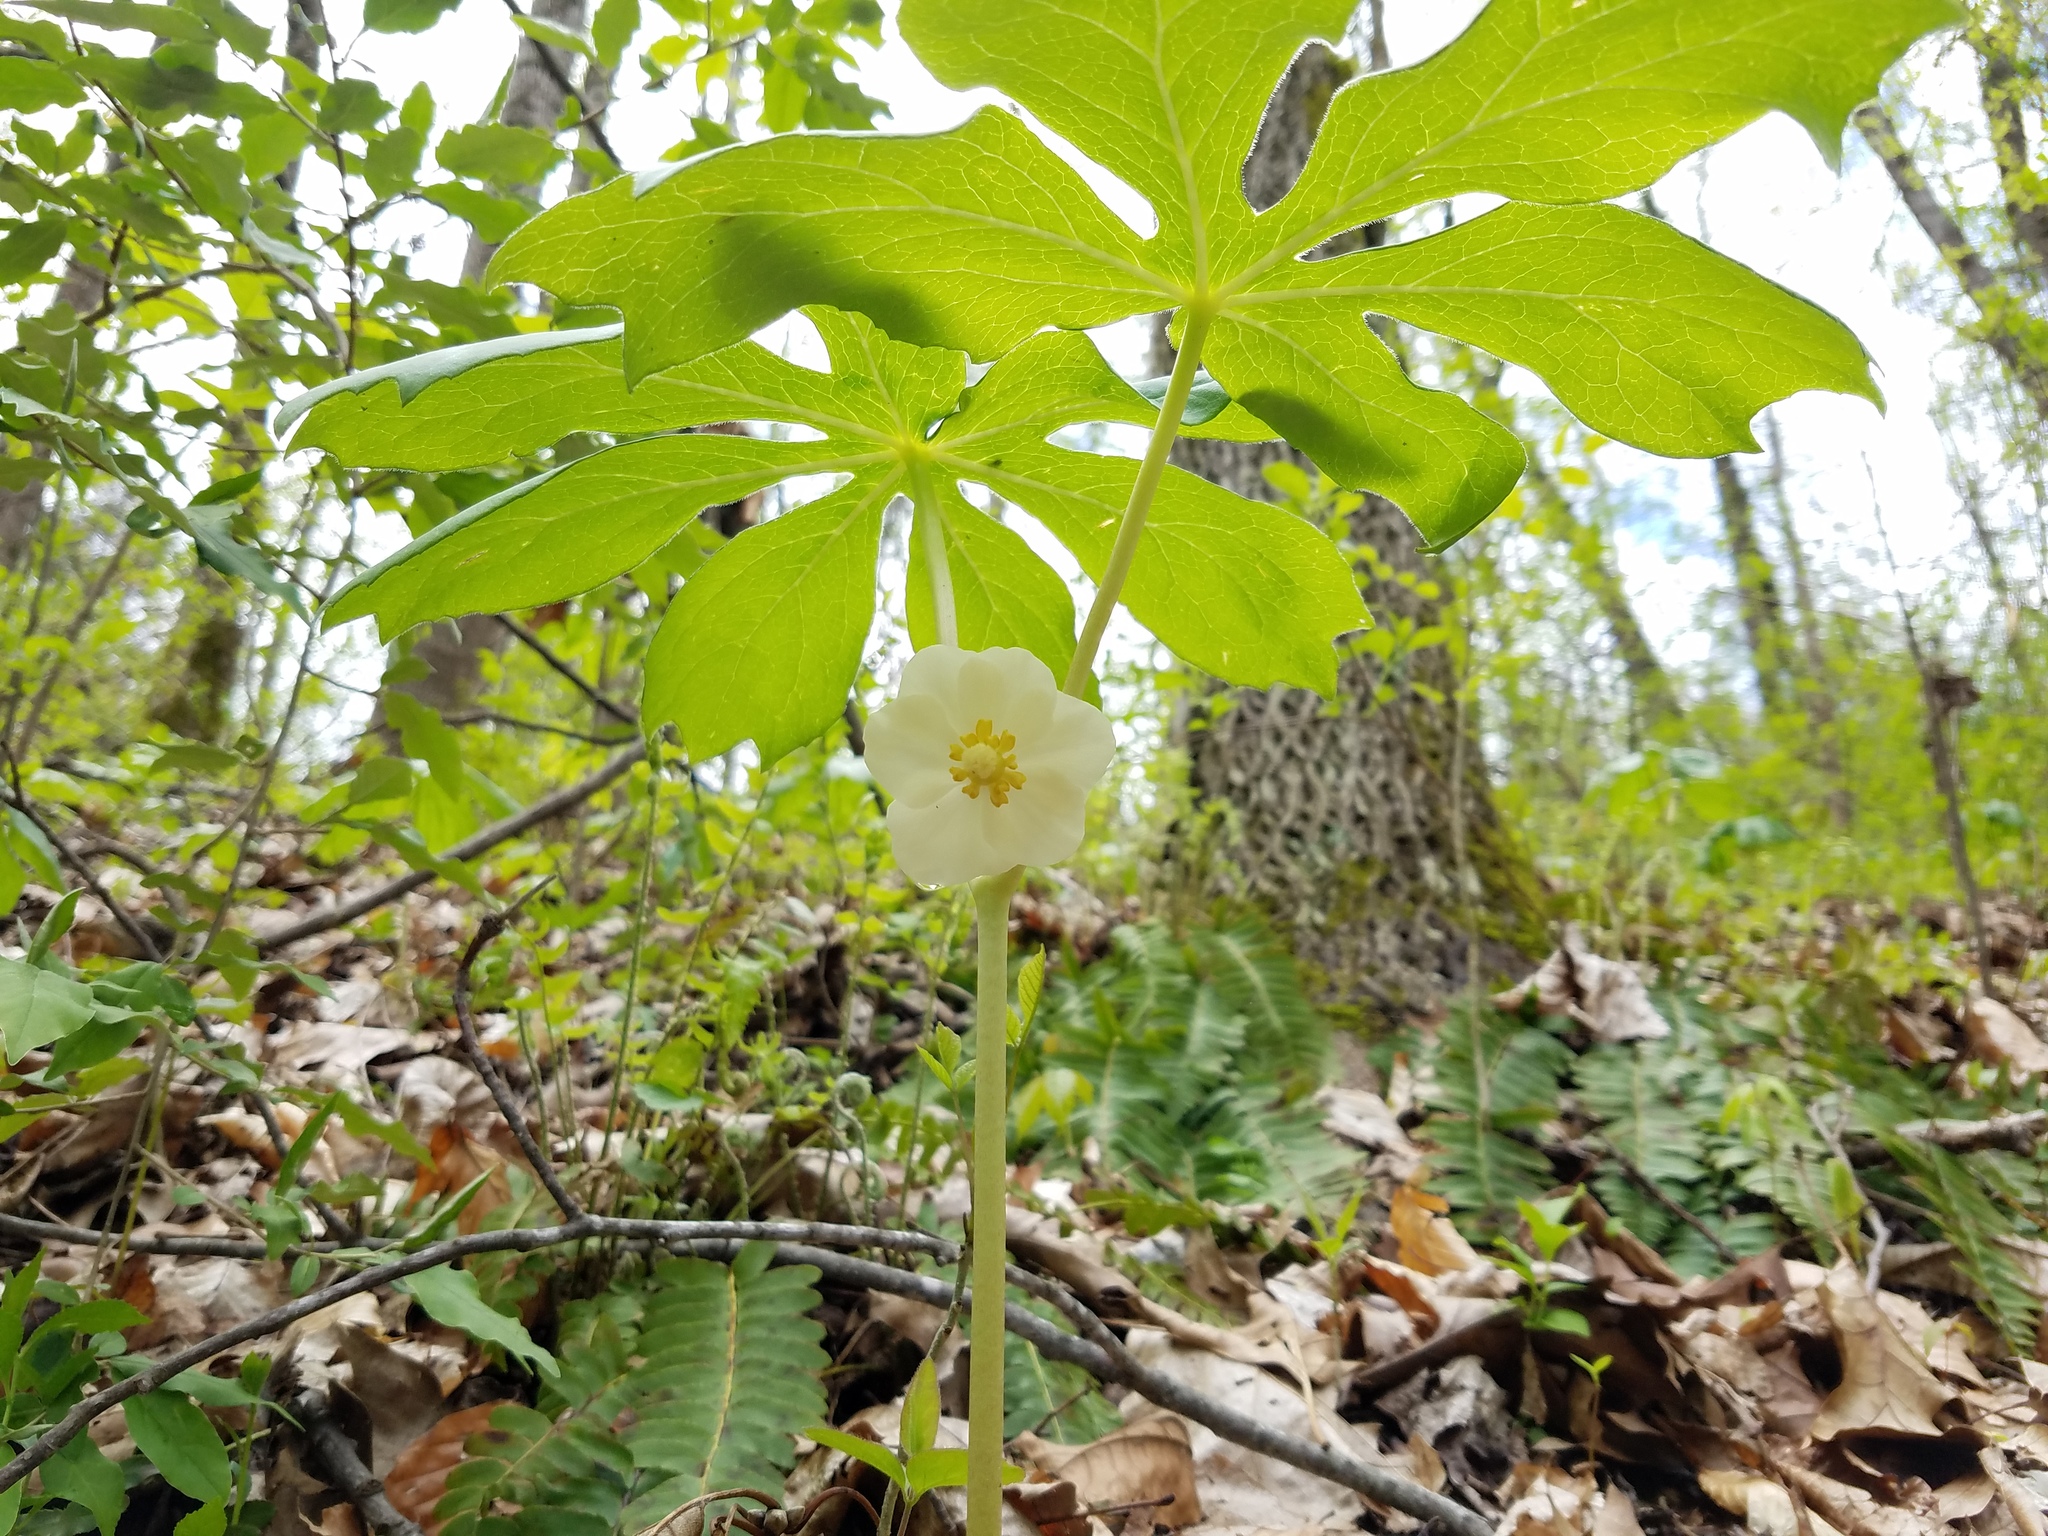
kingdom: Plantae
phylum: Tracheophyta
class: Magnoliopsida
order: Ranunculales
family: Berberidaceae
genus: Podophyllum
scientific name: Podophyllum peltatum
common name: Wild mandrake
